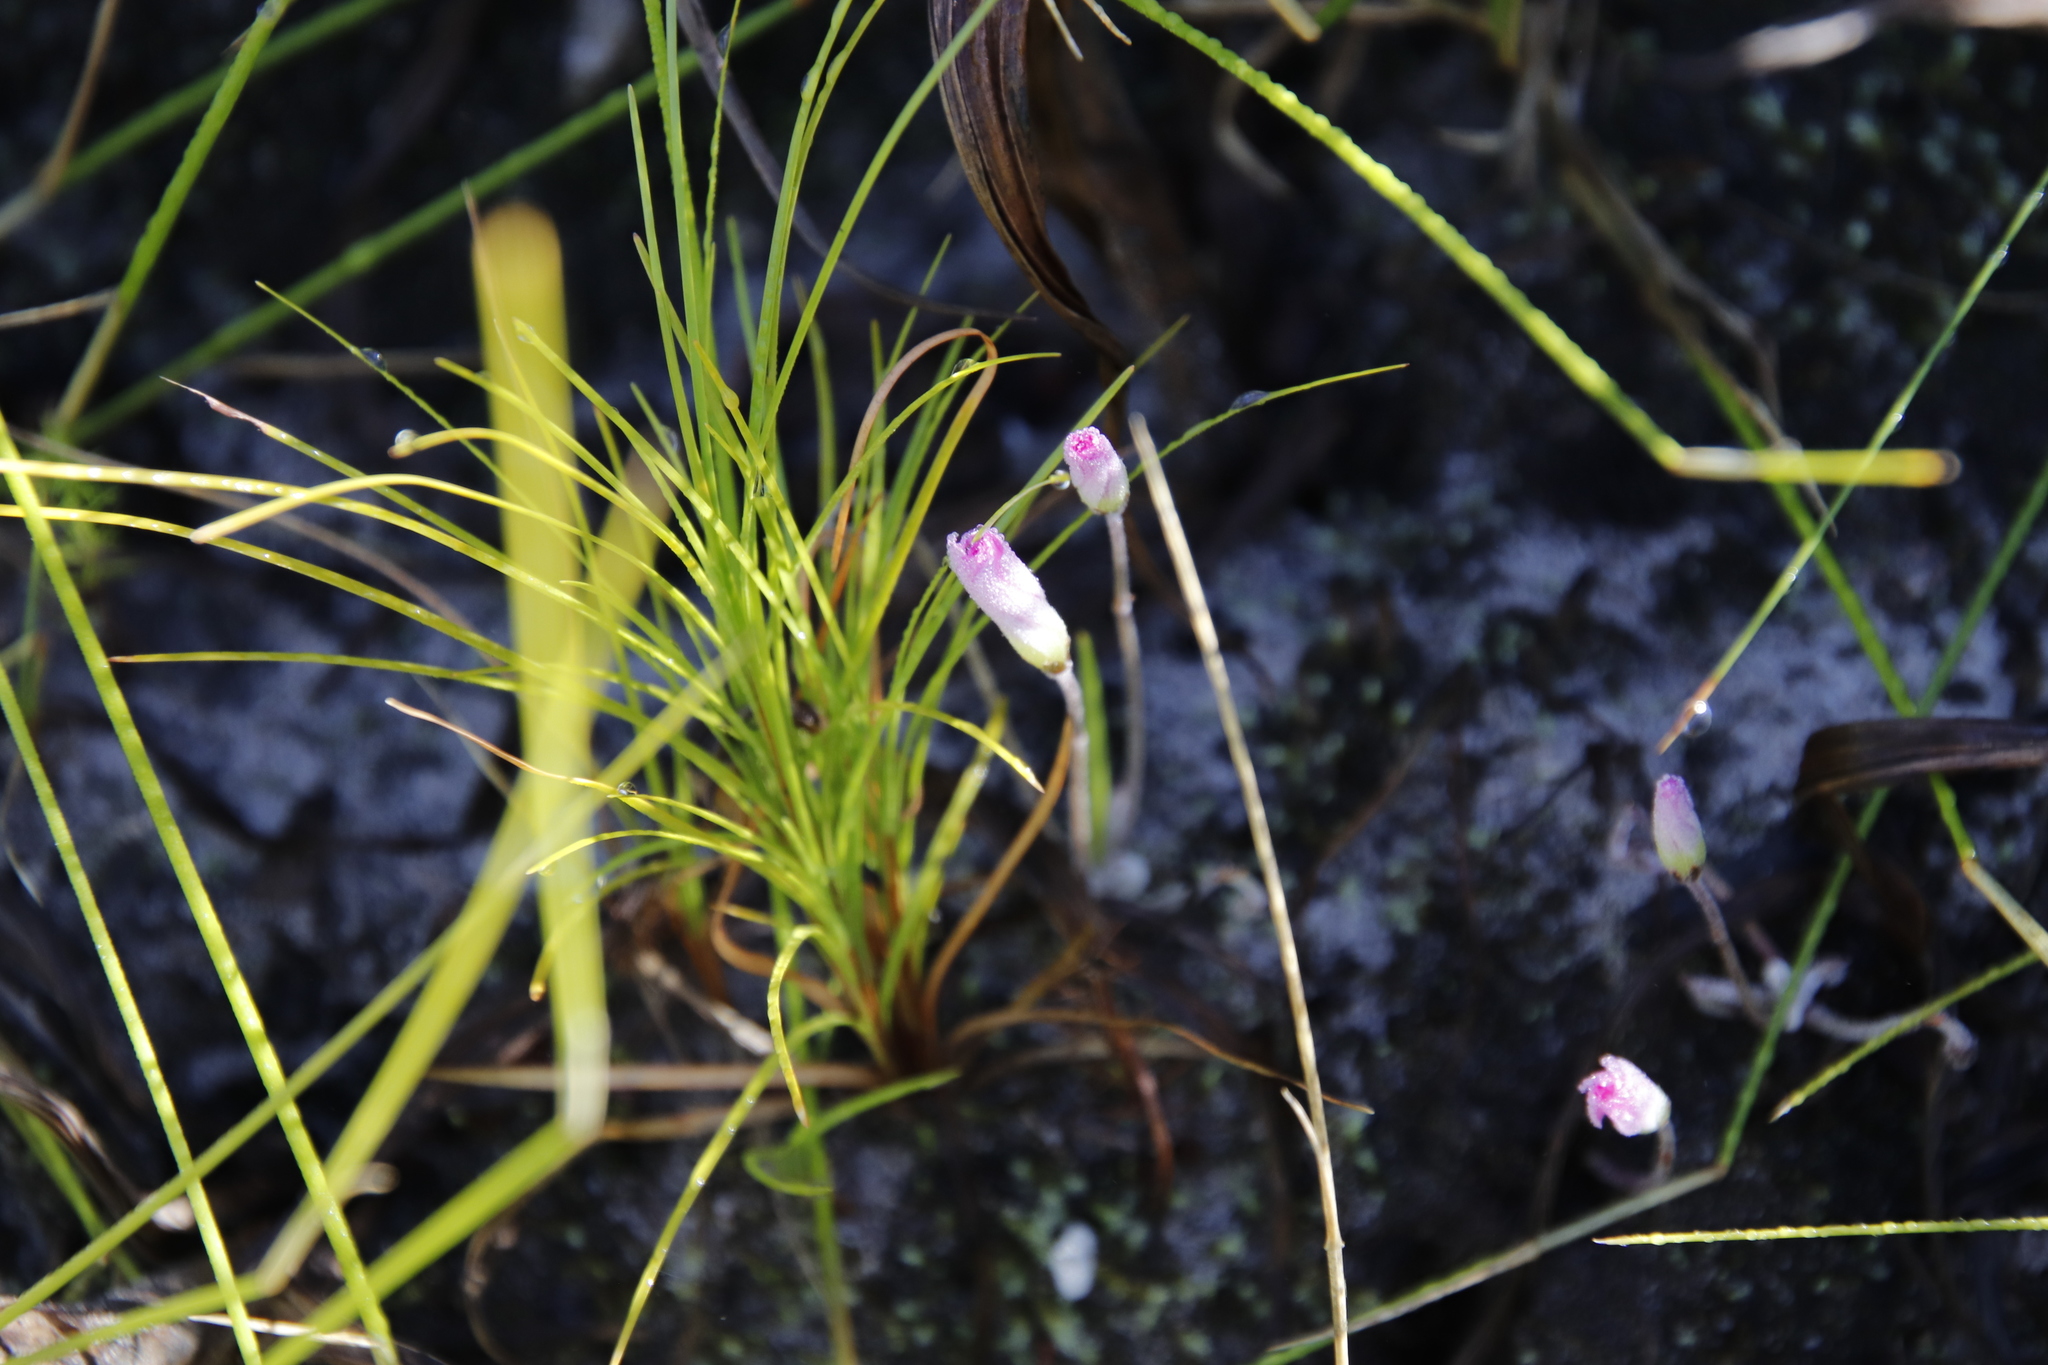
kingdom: Plantae
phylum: Tracheophyta
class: Magnoliopsida
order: Oxalidales
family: Oxalidaceae
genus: Oxalis
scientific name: Oxalis truncatula
